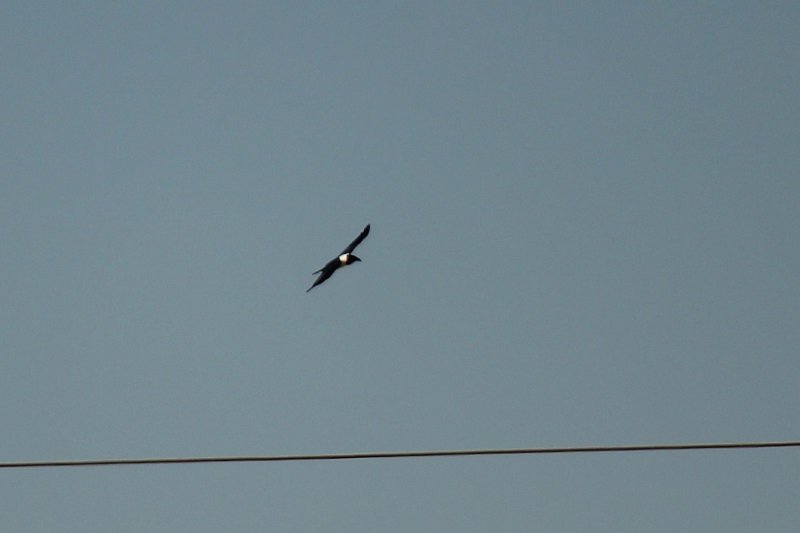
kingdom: Animalia
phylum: Chordata
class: Aves
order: Passeriformes
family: Corvidae
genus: Corvus
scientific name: Corvus albus
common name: Pied crow
